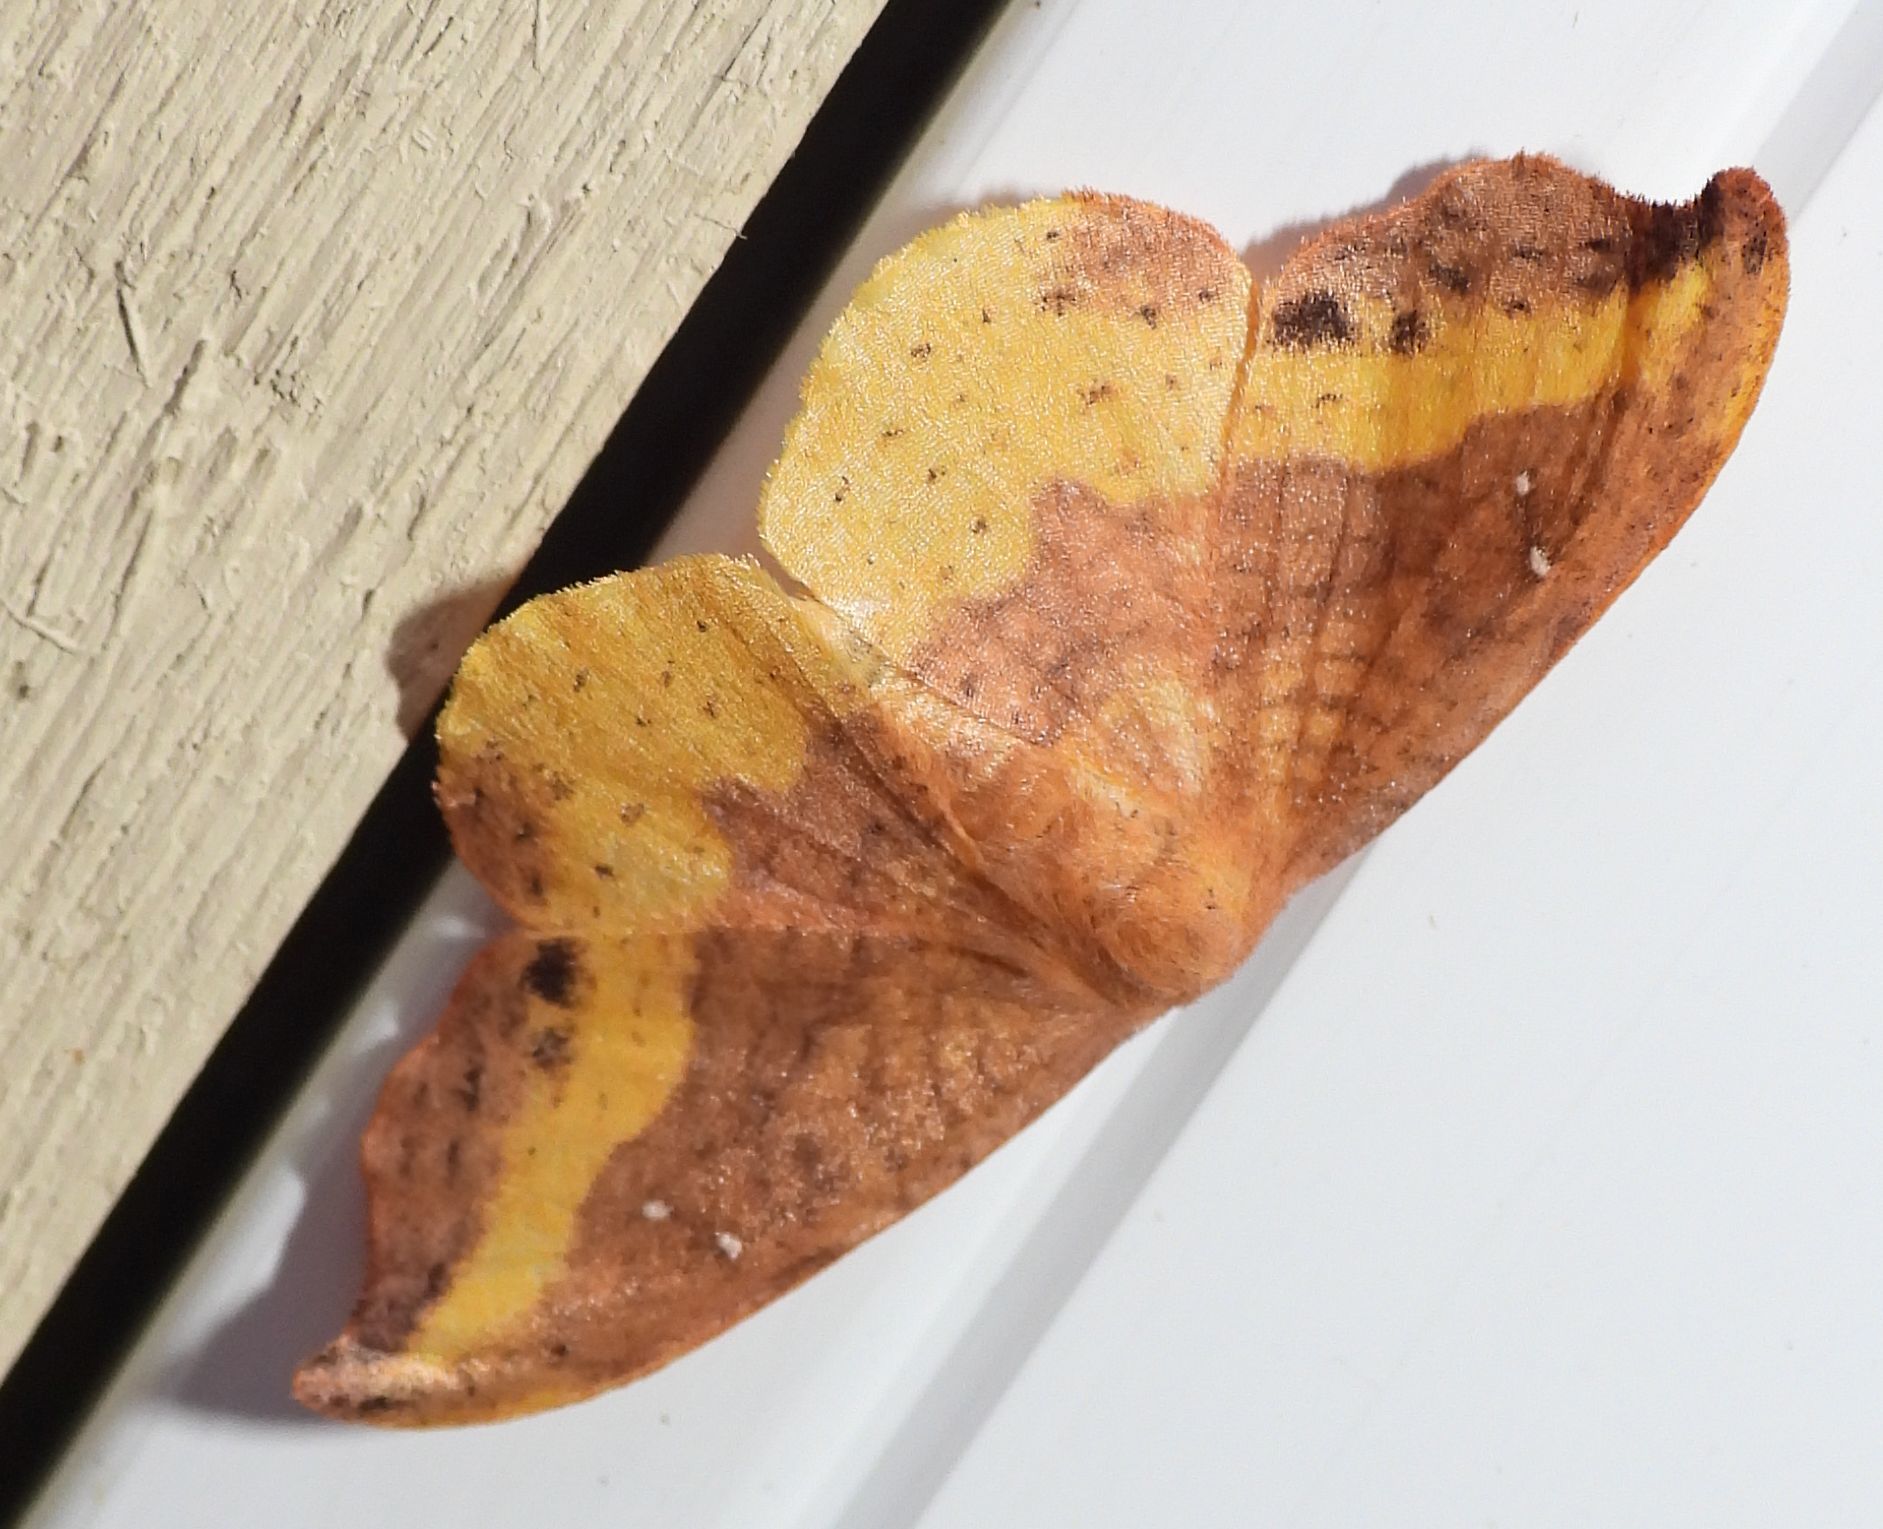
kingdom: Animalia
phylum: Arthropoda
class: Insecta
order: Lepidoptera
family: Drepanidae
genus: Oreta
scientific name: Oreta rosea
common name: Rose hooktip
